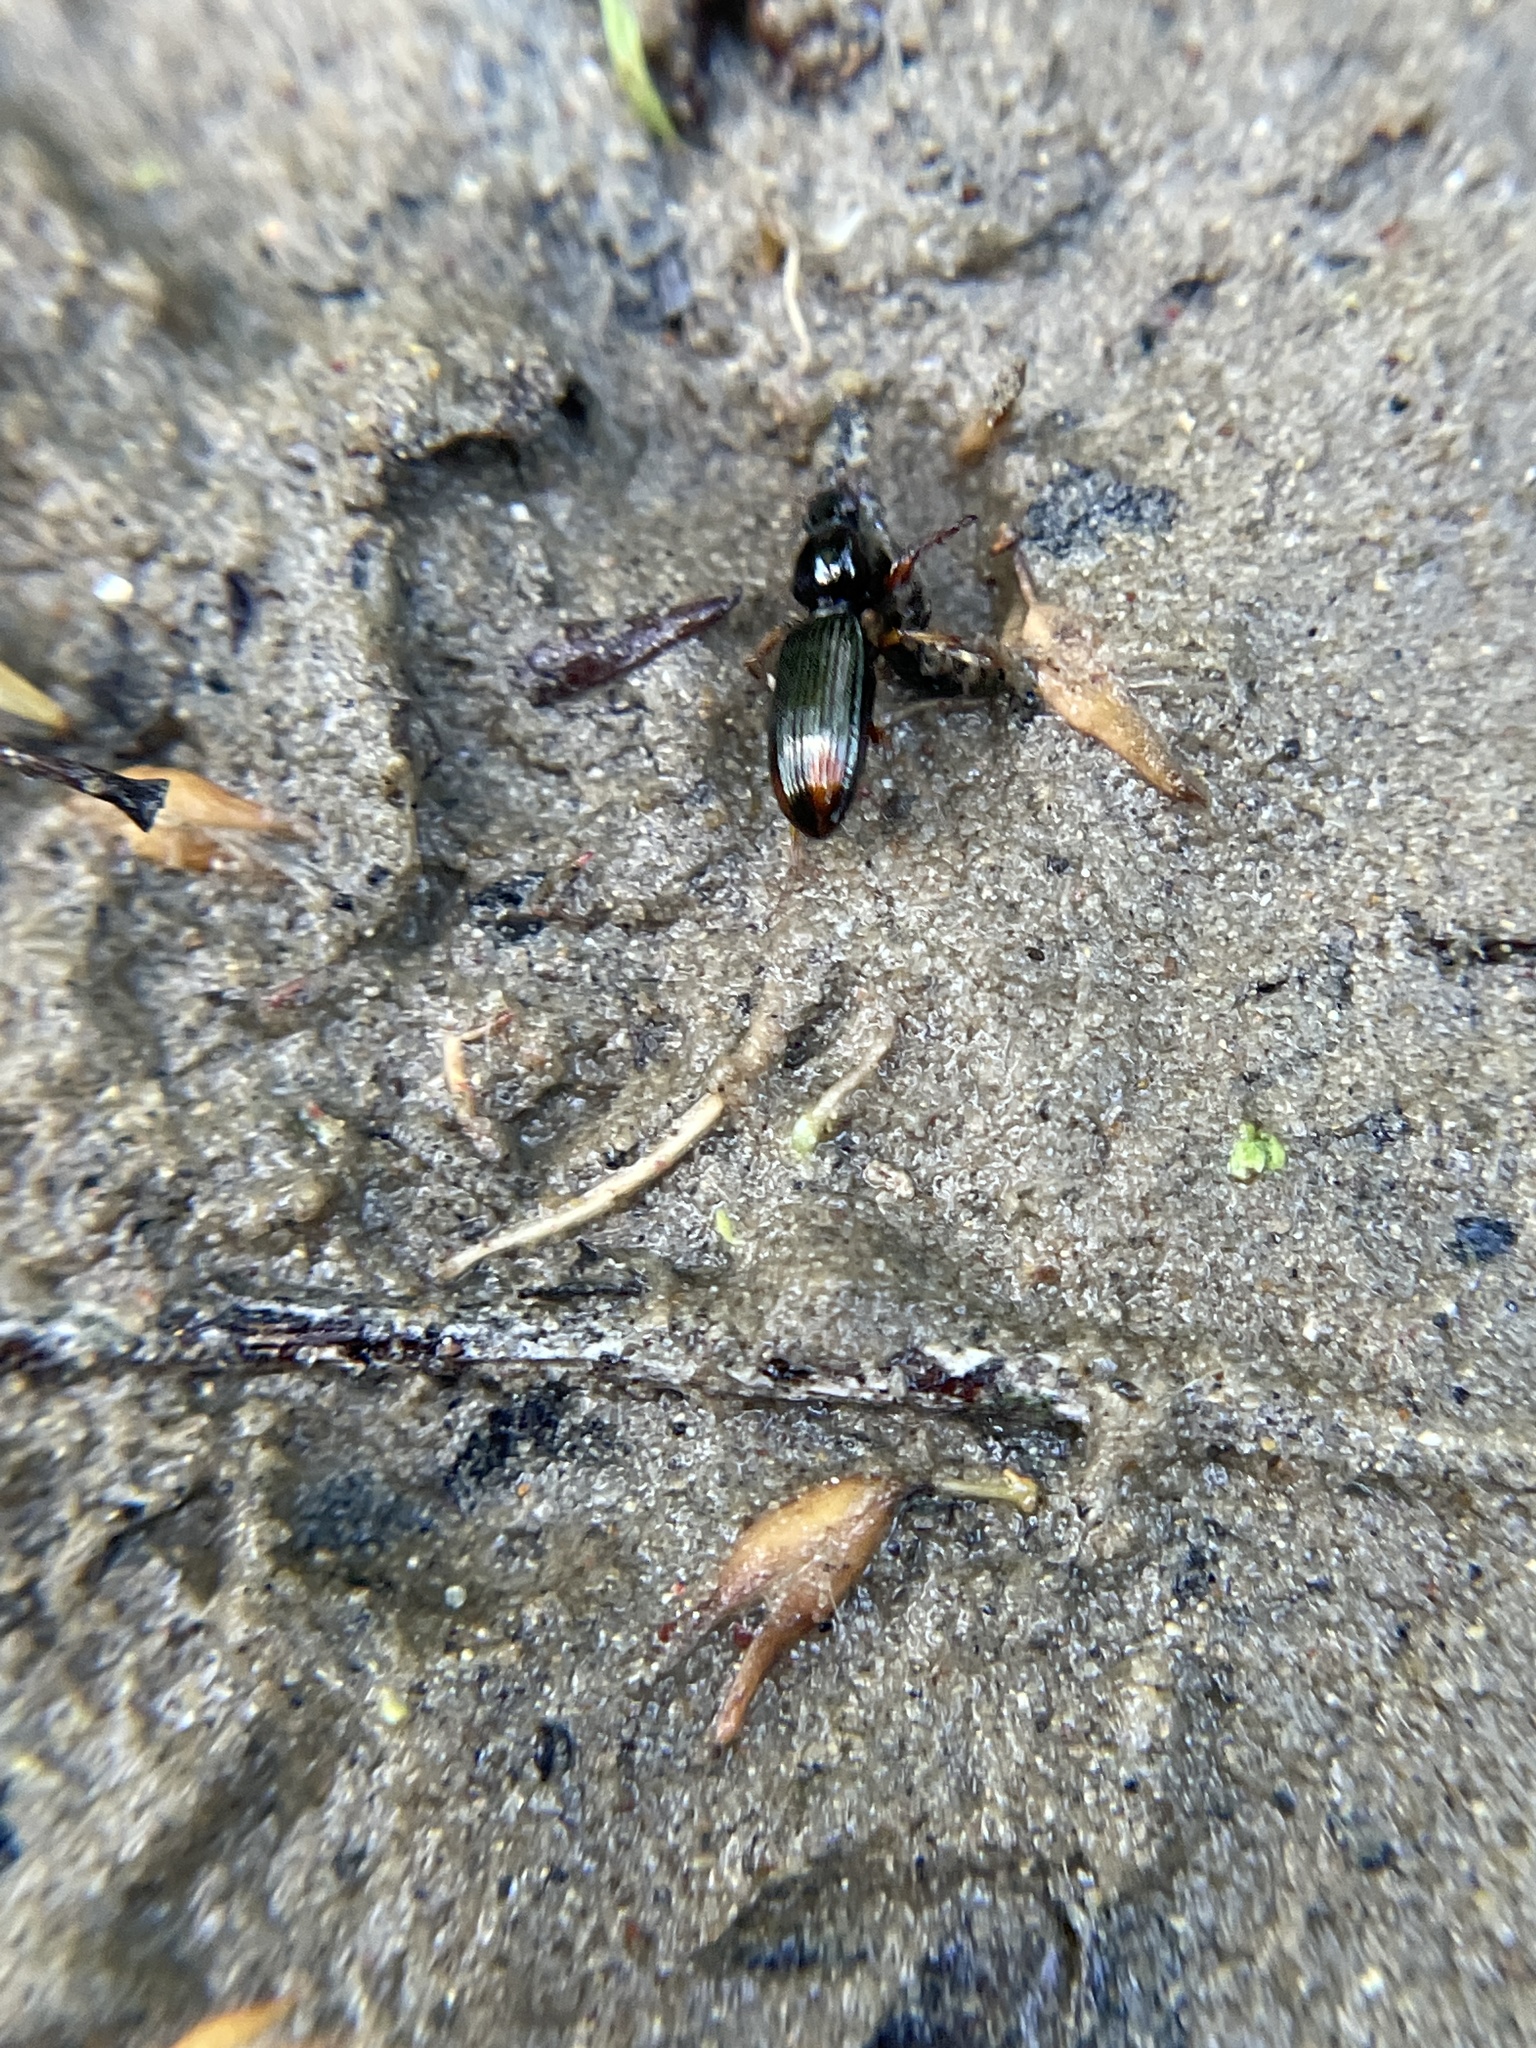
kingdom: Animalia
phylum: Arthropoda
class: Insecta
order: Coleoptera
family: Carabidae
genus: Aspidoglossa
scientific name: Aspidoglossa subangulata
